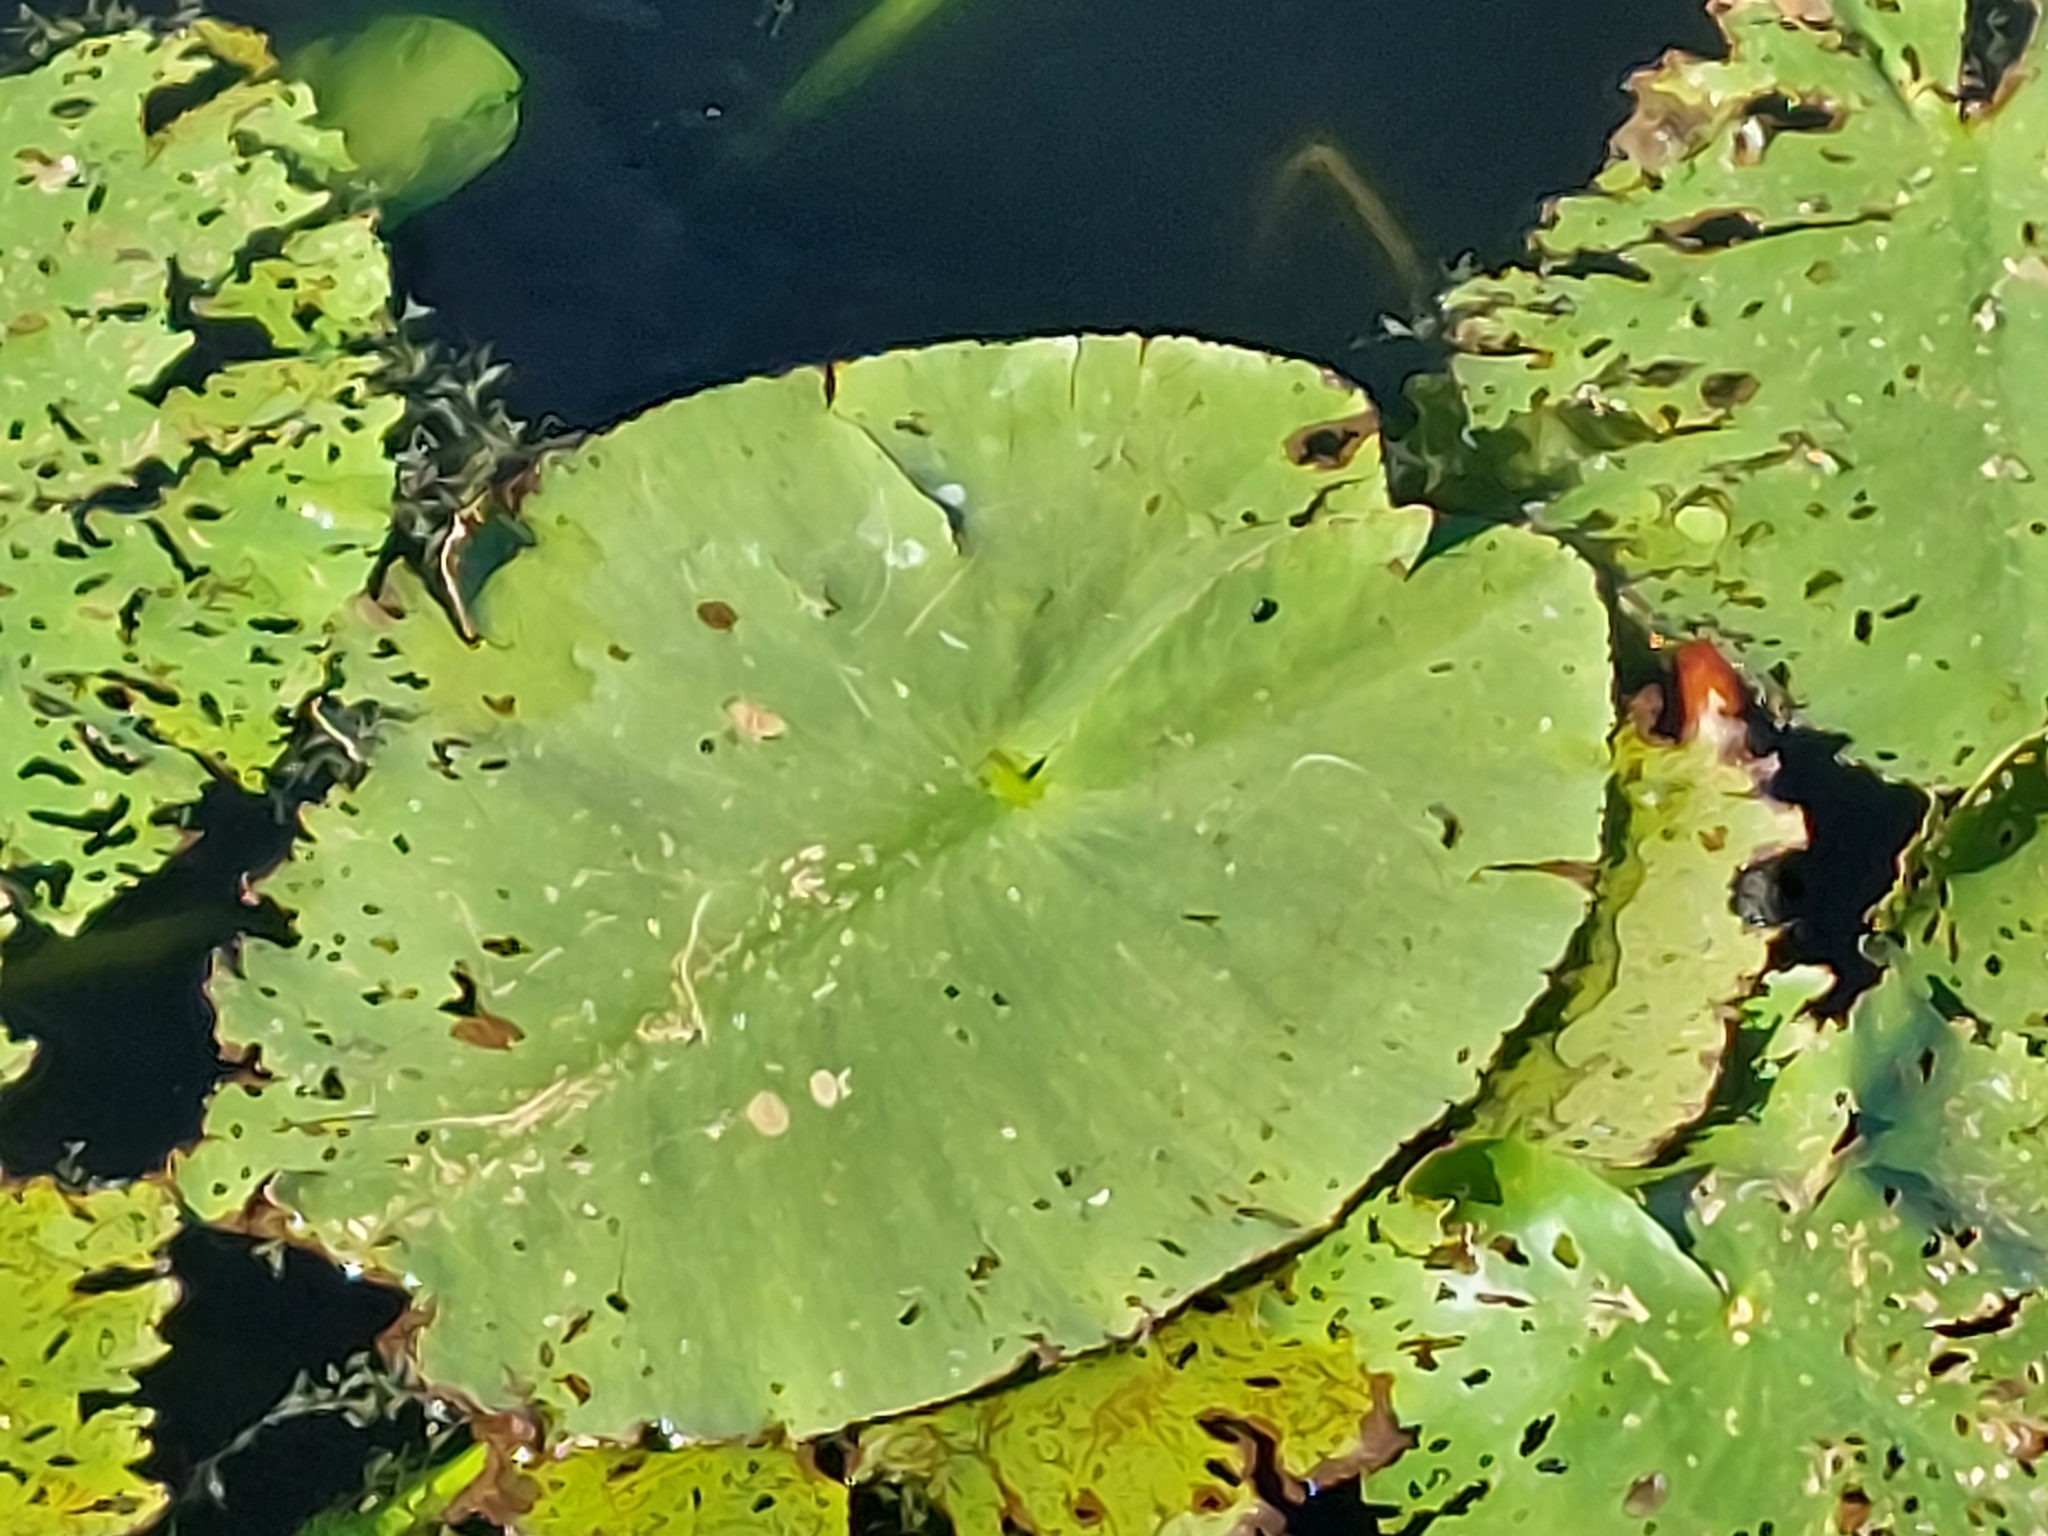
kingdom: Plantae
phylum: Tracheophyta
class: Magnoliopsida
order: Nymphaeales
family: Nymphaeaceae
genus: Nuphar
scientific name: Nuphar lutea
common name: Yellow water-lily
